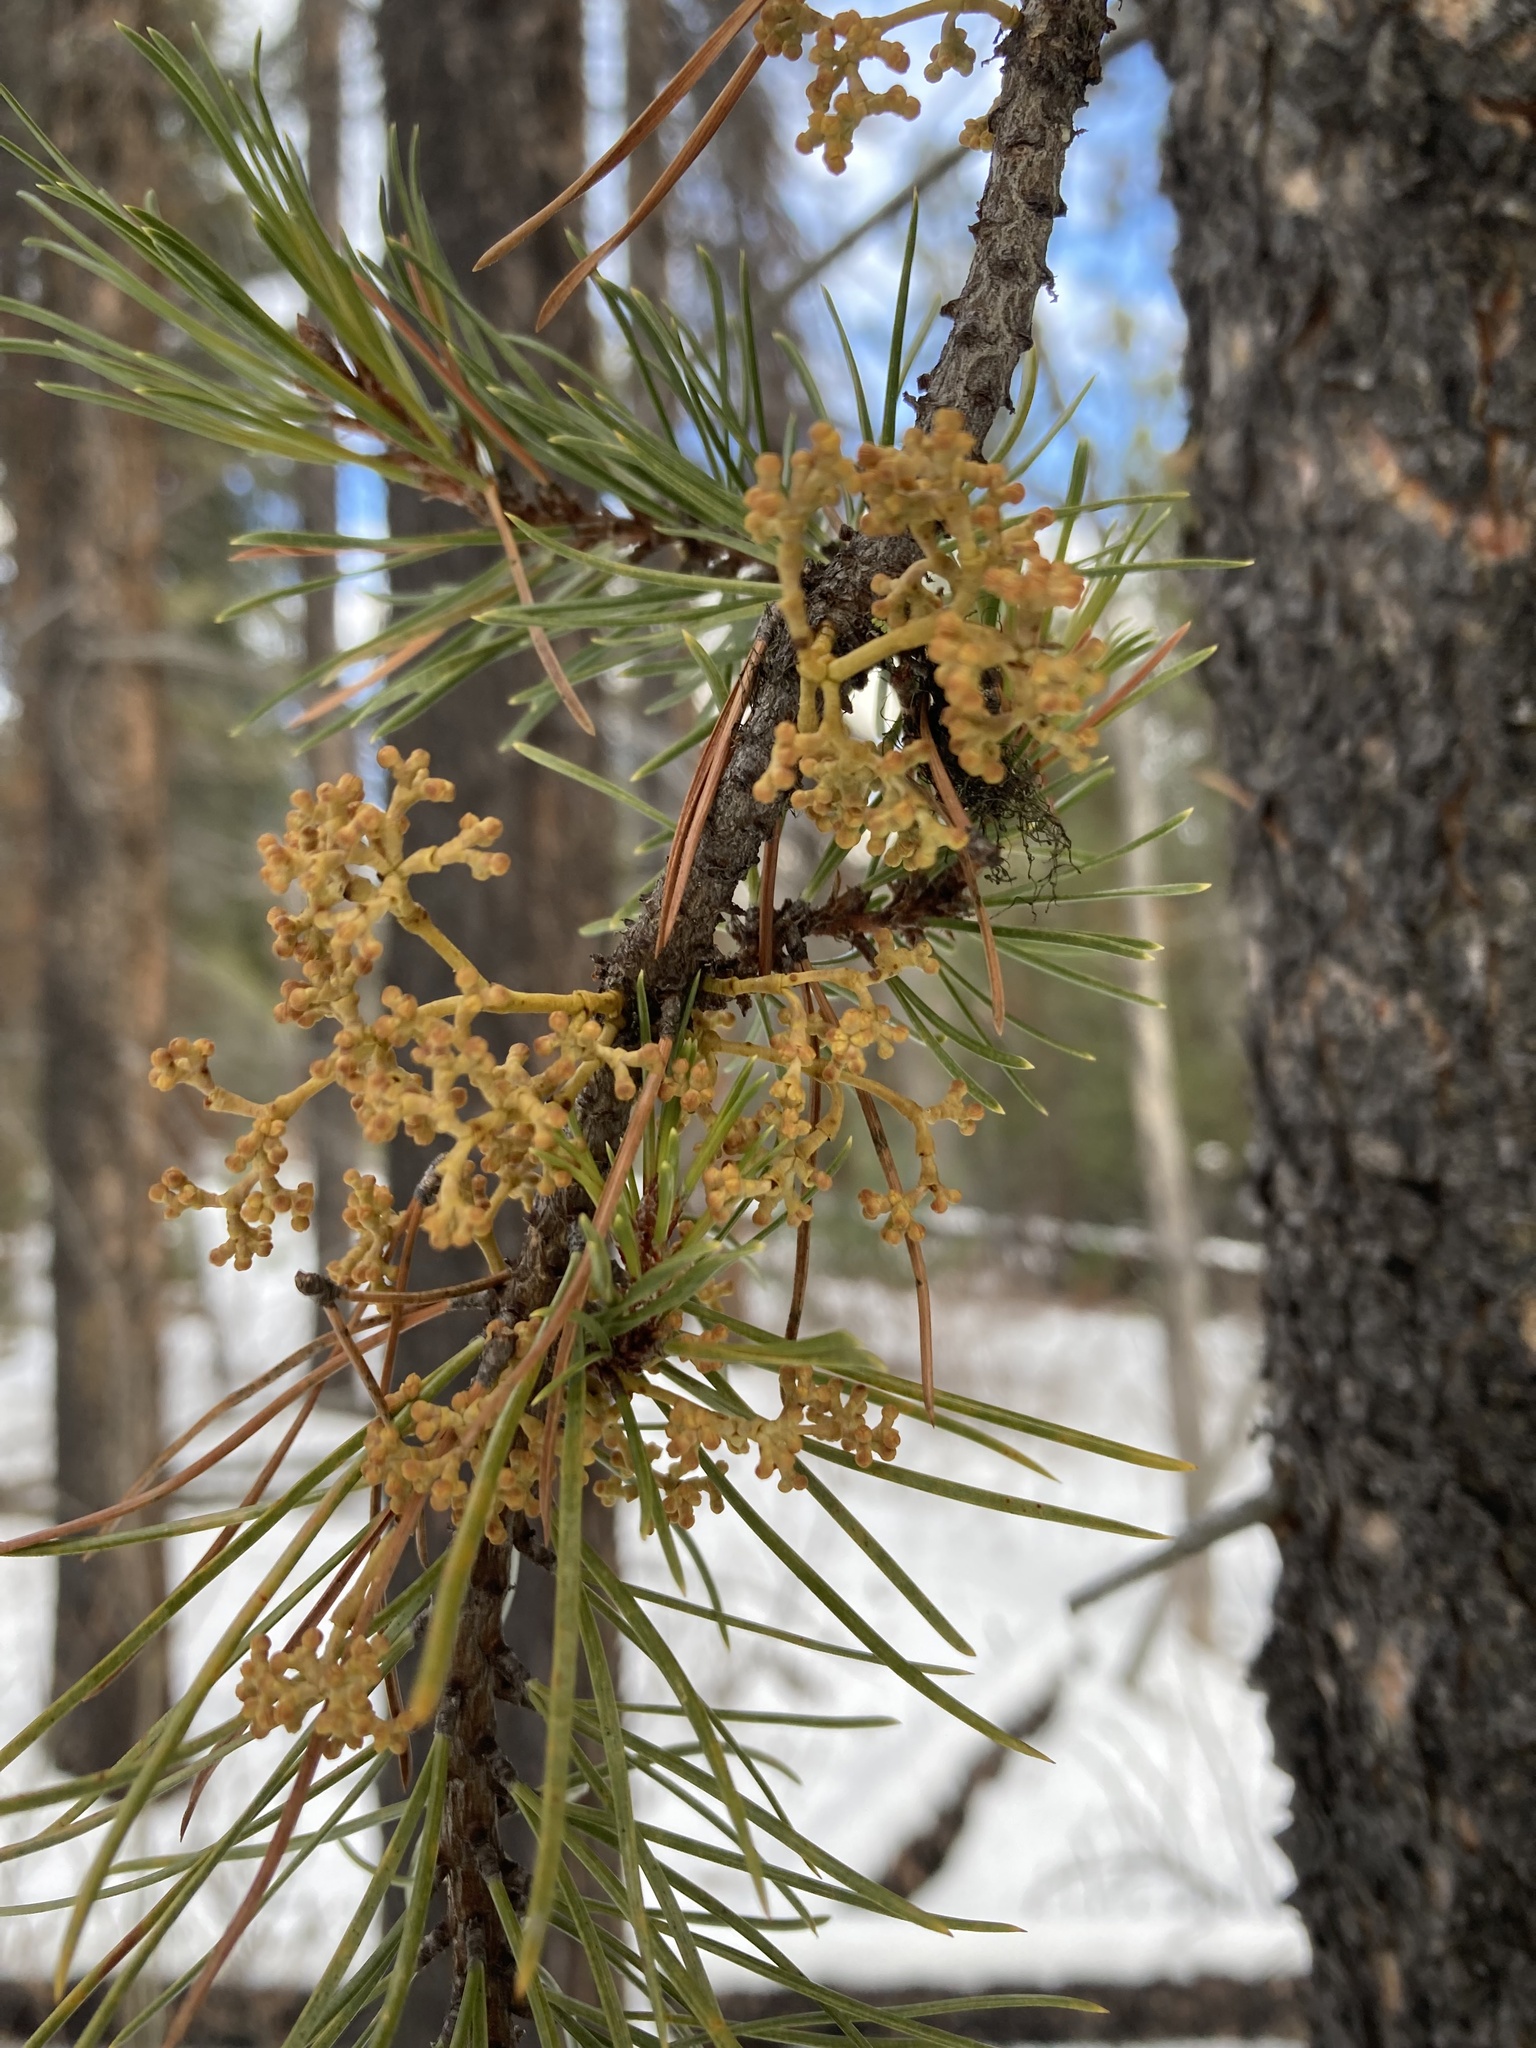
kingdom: Plantae
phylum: Tracheophyta
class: Magnoliopsida
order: Santalales
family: Viscaceae
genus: Arceuthobium
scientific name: Arceuthobium americanum
